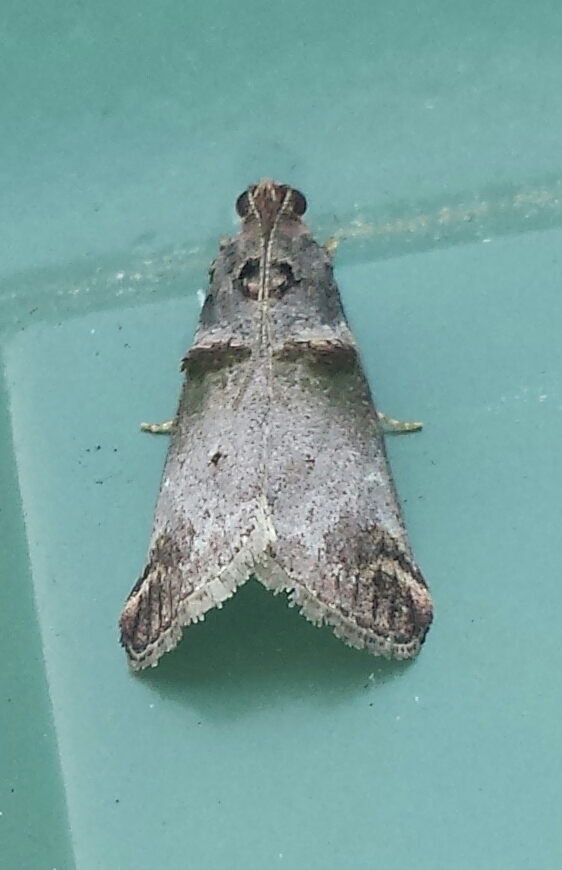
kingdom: Animalia
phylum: Arthropoda
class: Insecta
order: Lepidoptera
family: Pyralidae
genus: Oneida
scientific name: Oneida lunulalis
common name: Orange-tufted oneida moth
